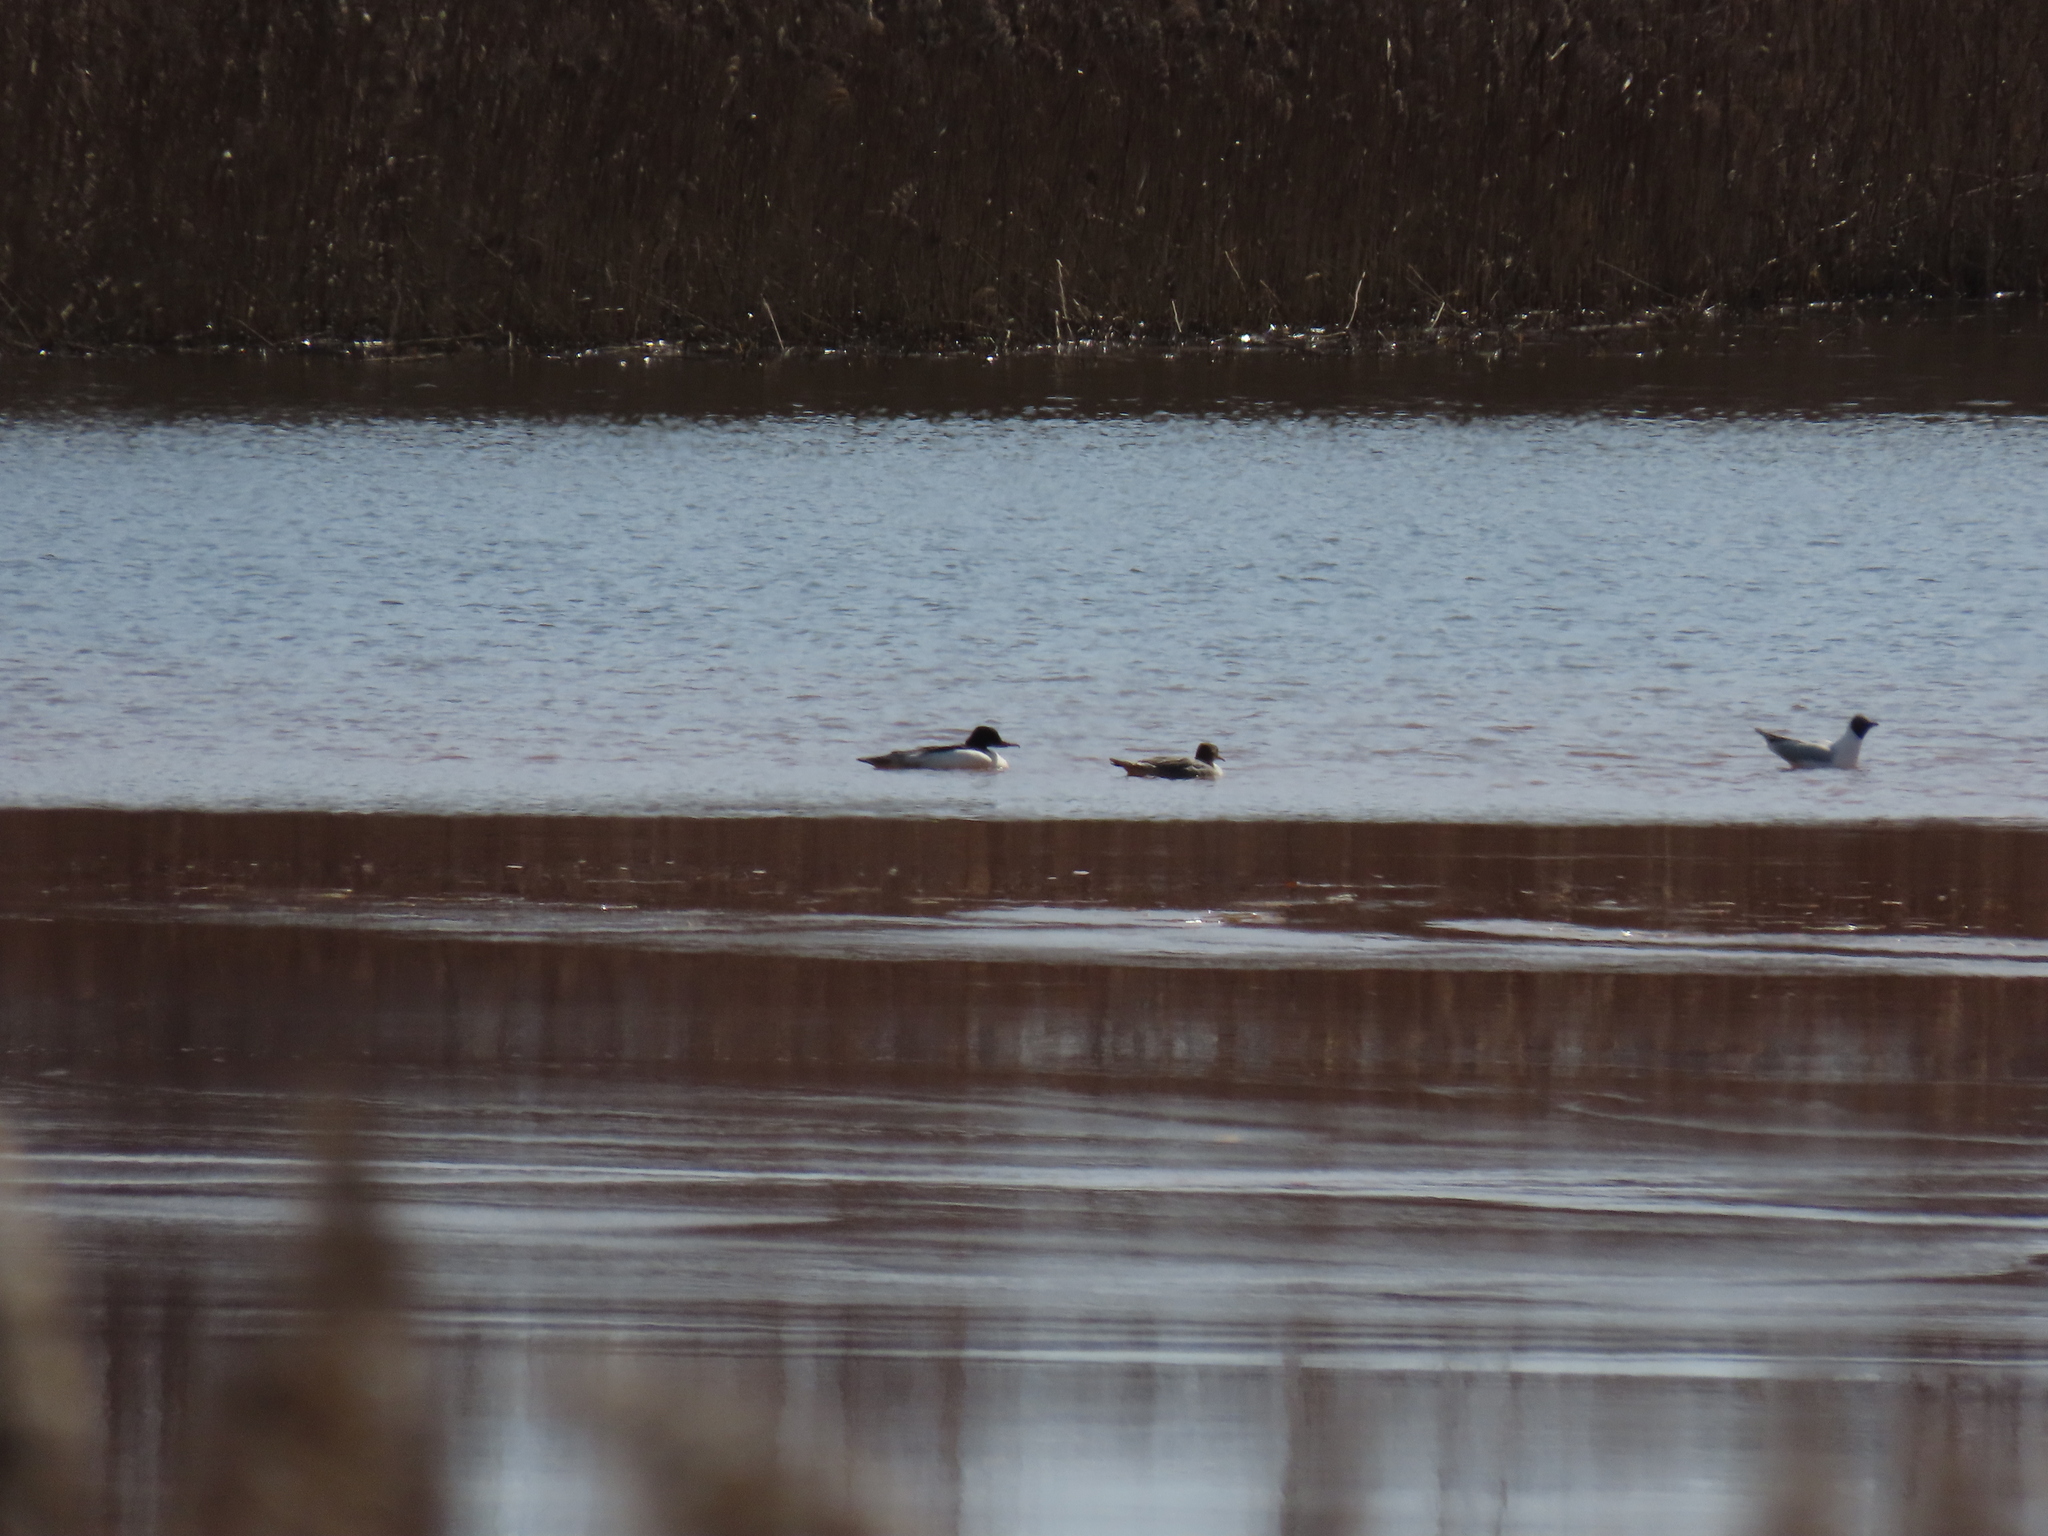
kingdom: Animalia
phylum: Chordata
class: Aves
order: Anseriformes
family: Anatidae
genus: Mergus
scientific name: Mergus merganser
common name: Common merganser
